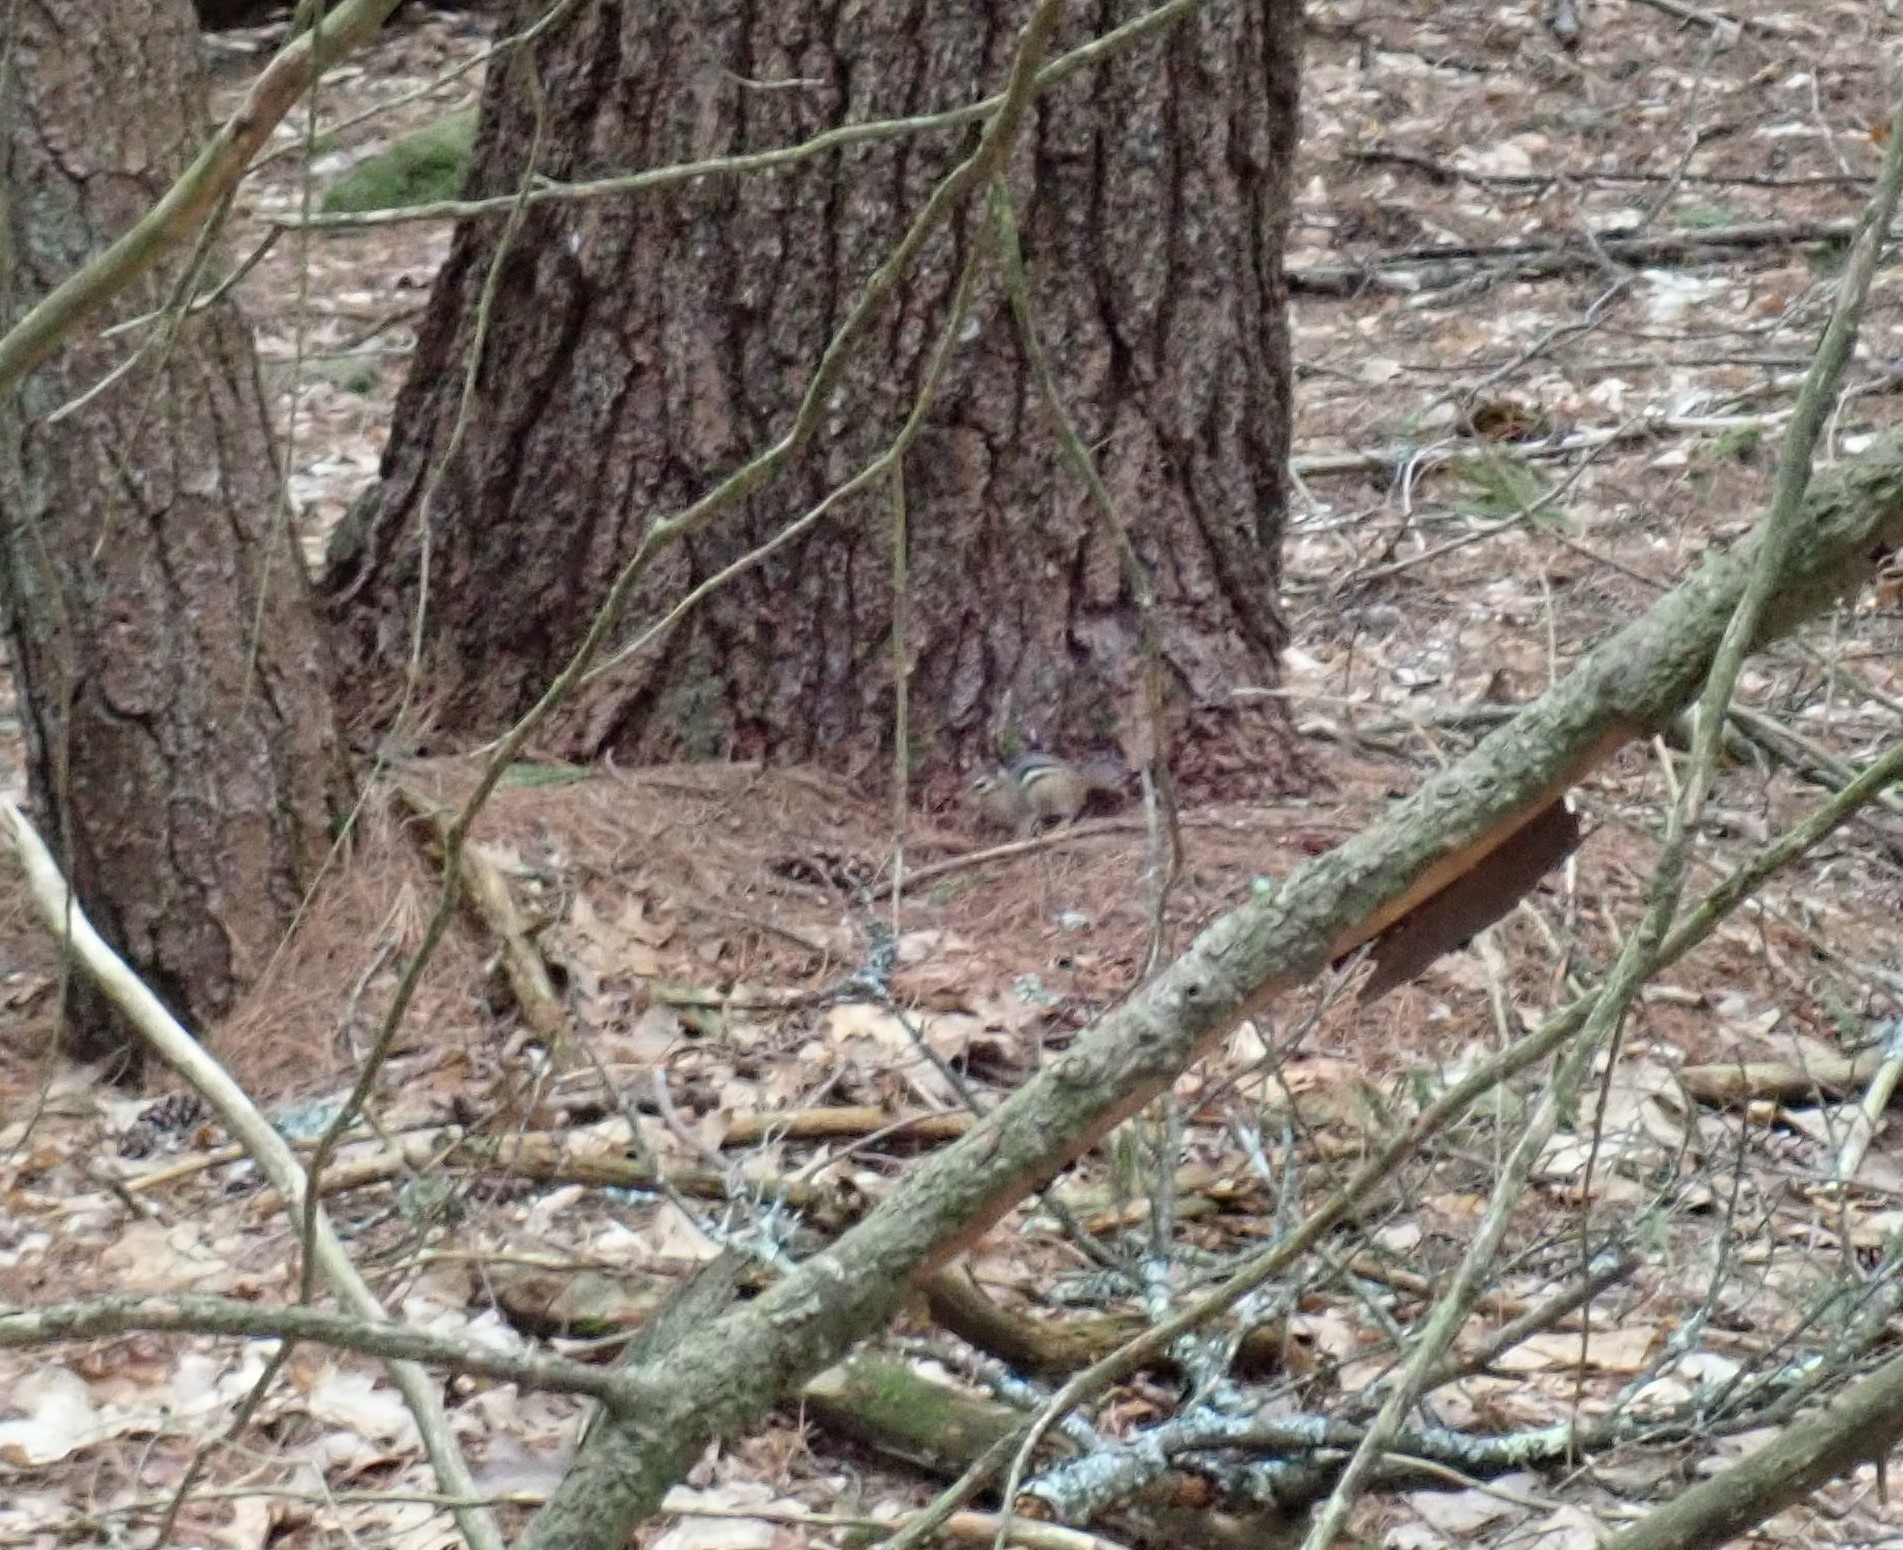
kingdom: Animalia
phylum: Chordata
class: Mammalia
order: Rodentia
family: Sciuridae
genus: Tamias
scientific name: Tamias striatus
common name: Eastern chipmunk
